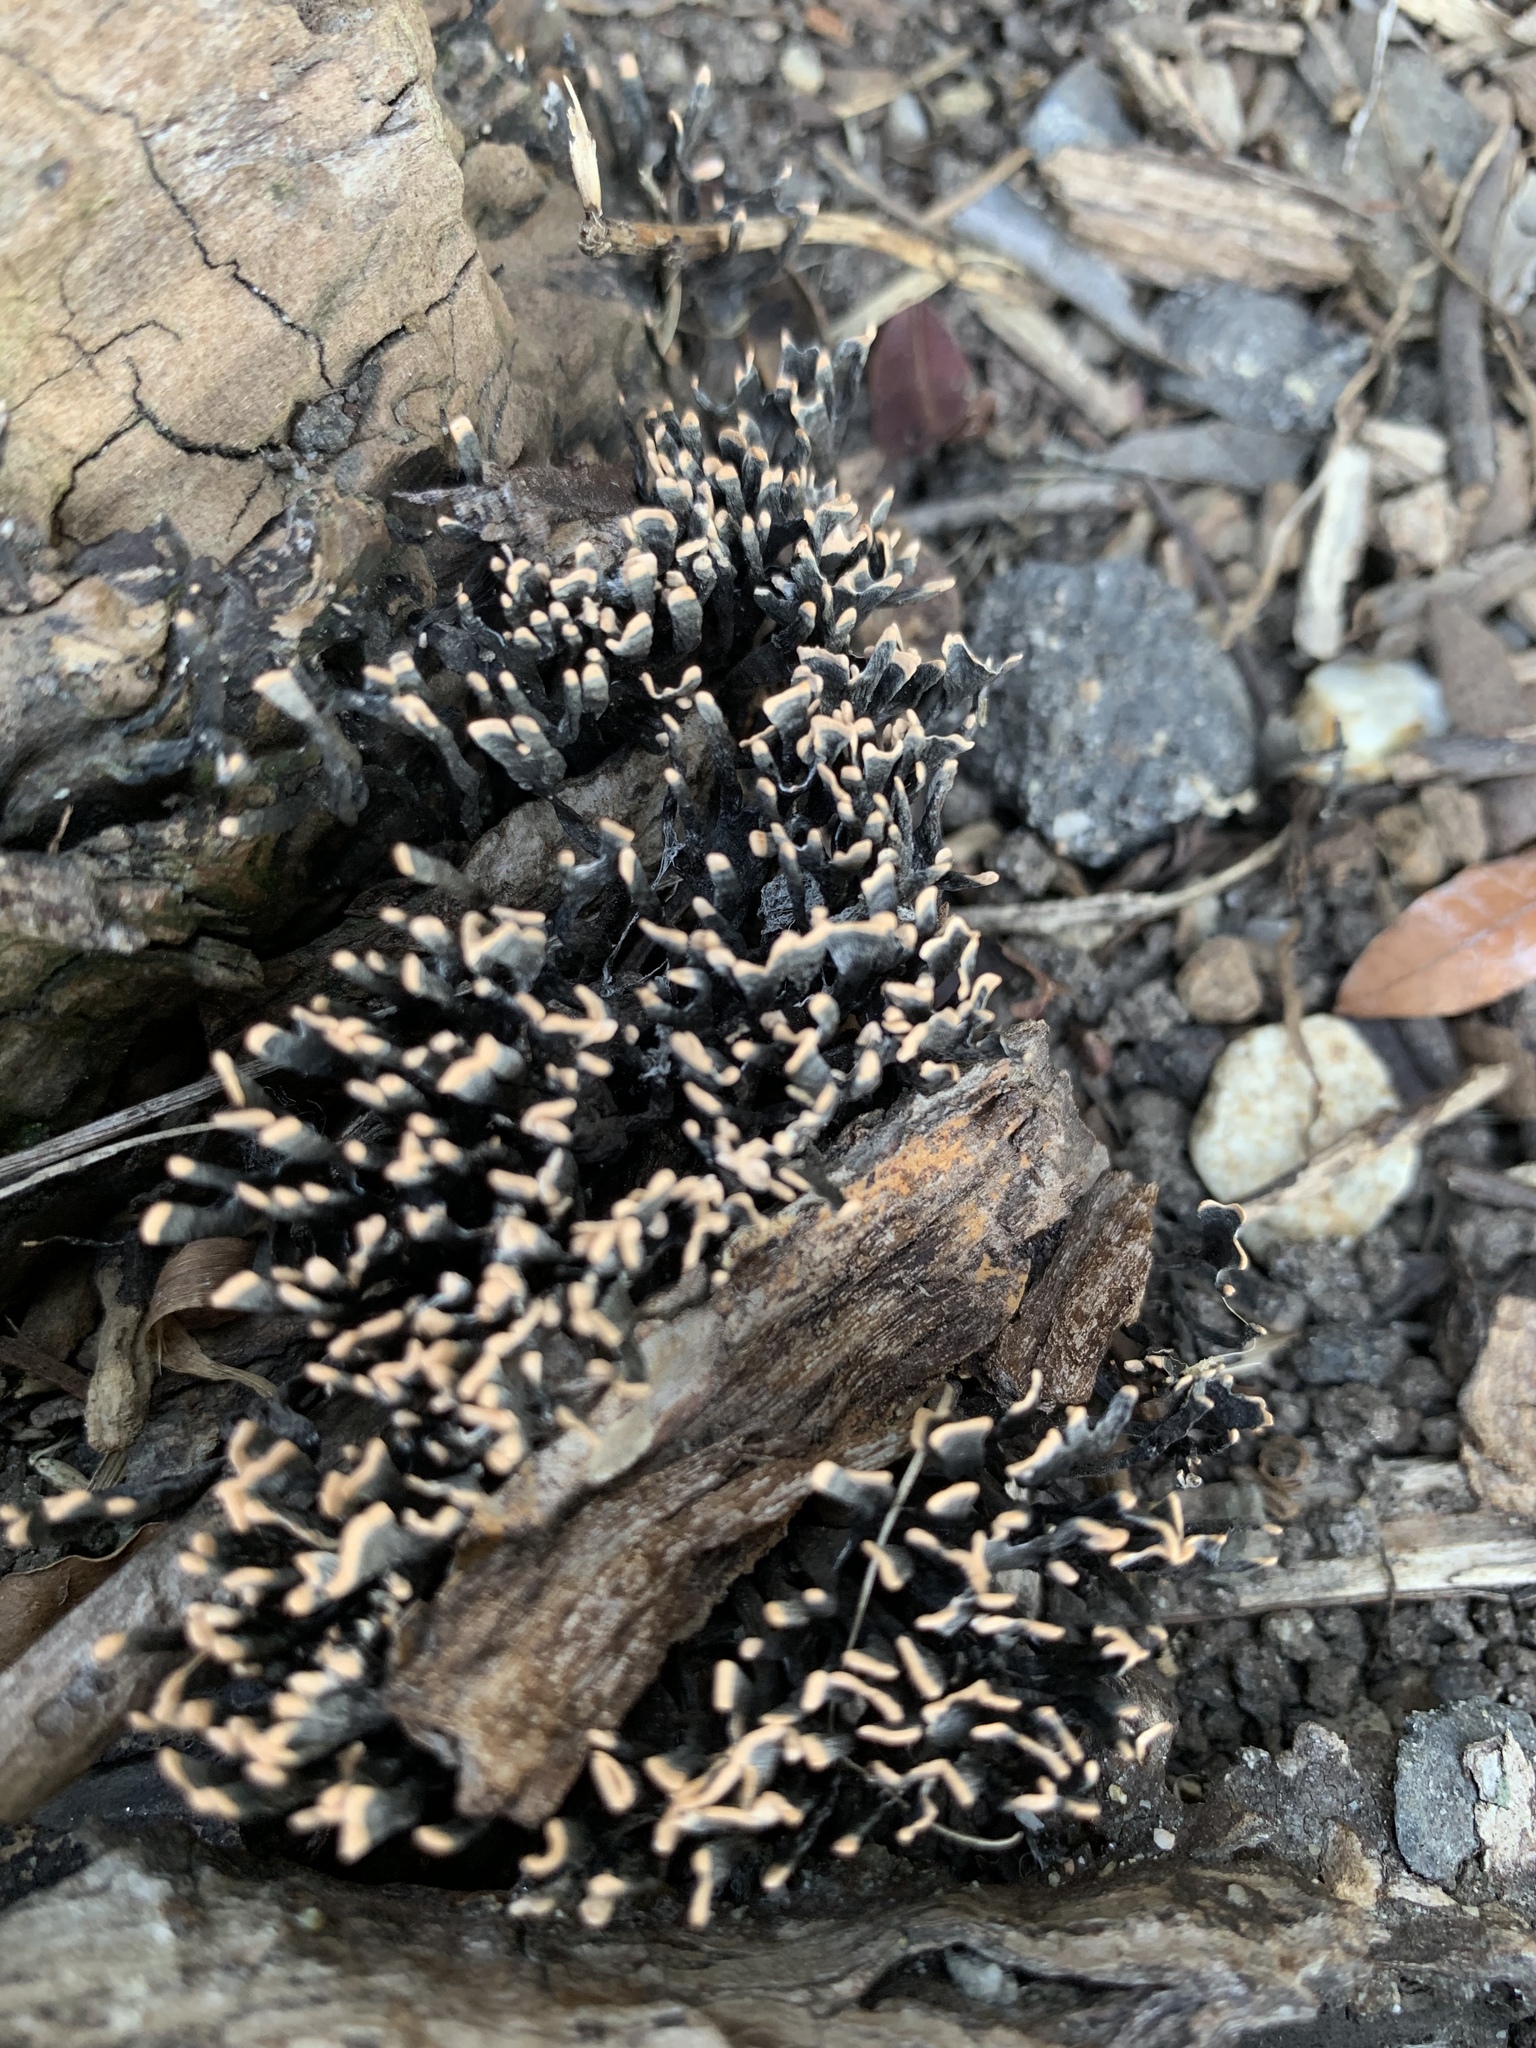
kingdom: Fungi
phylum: Ascomycota
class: Sordariomycetes
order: Xylariales
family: Xylariaceae
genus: Xylaria
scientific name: Xylaria hypoxylon
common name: Candle-snuff fungus
